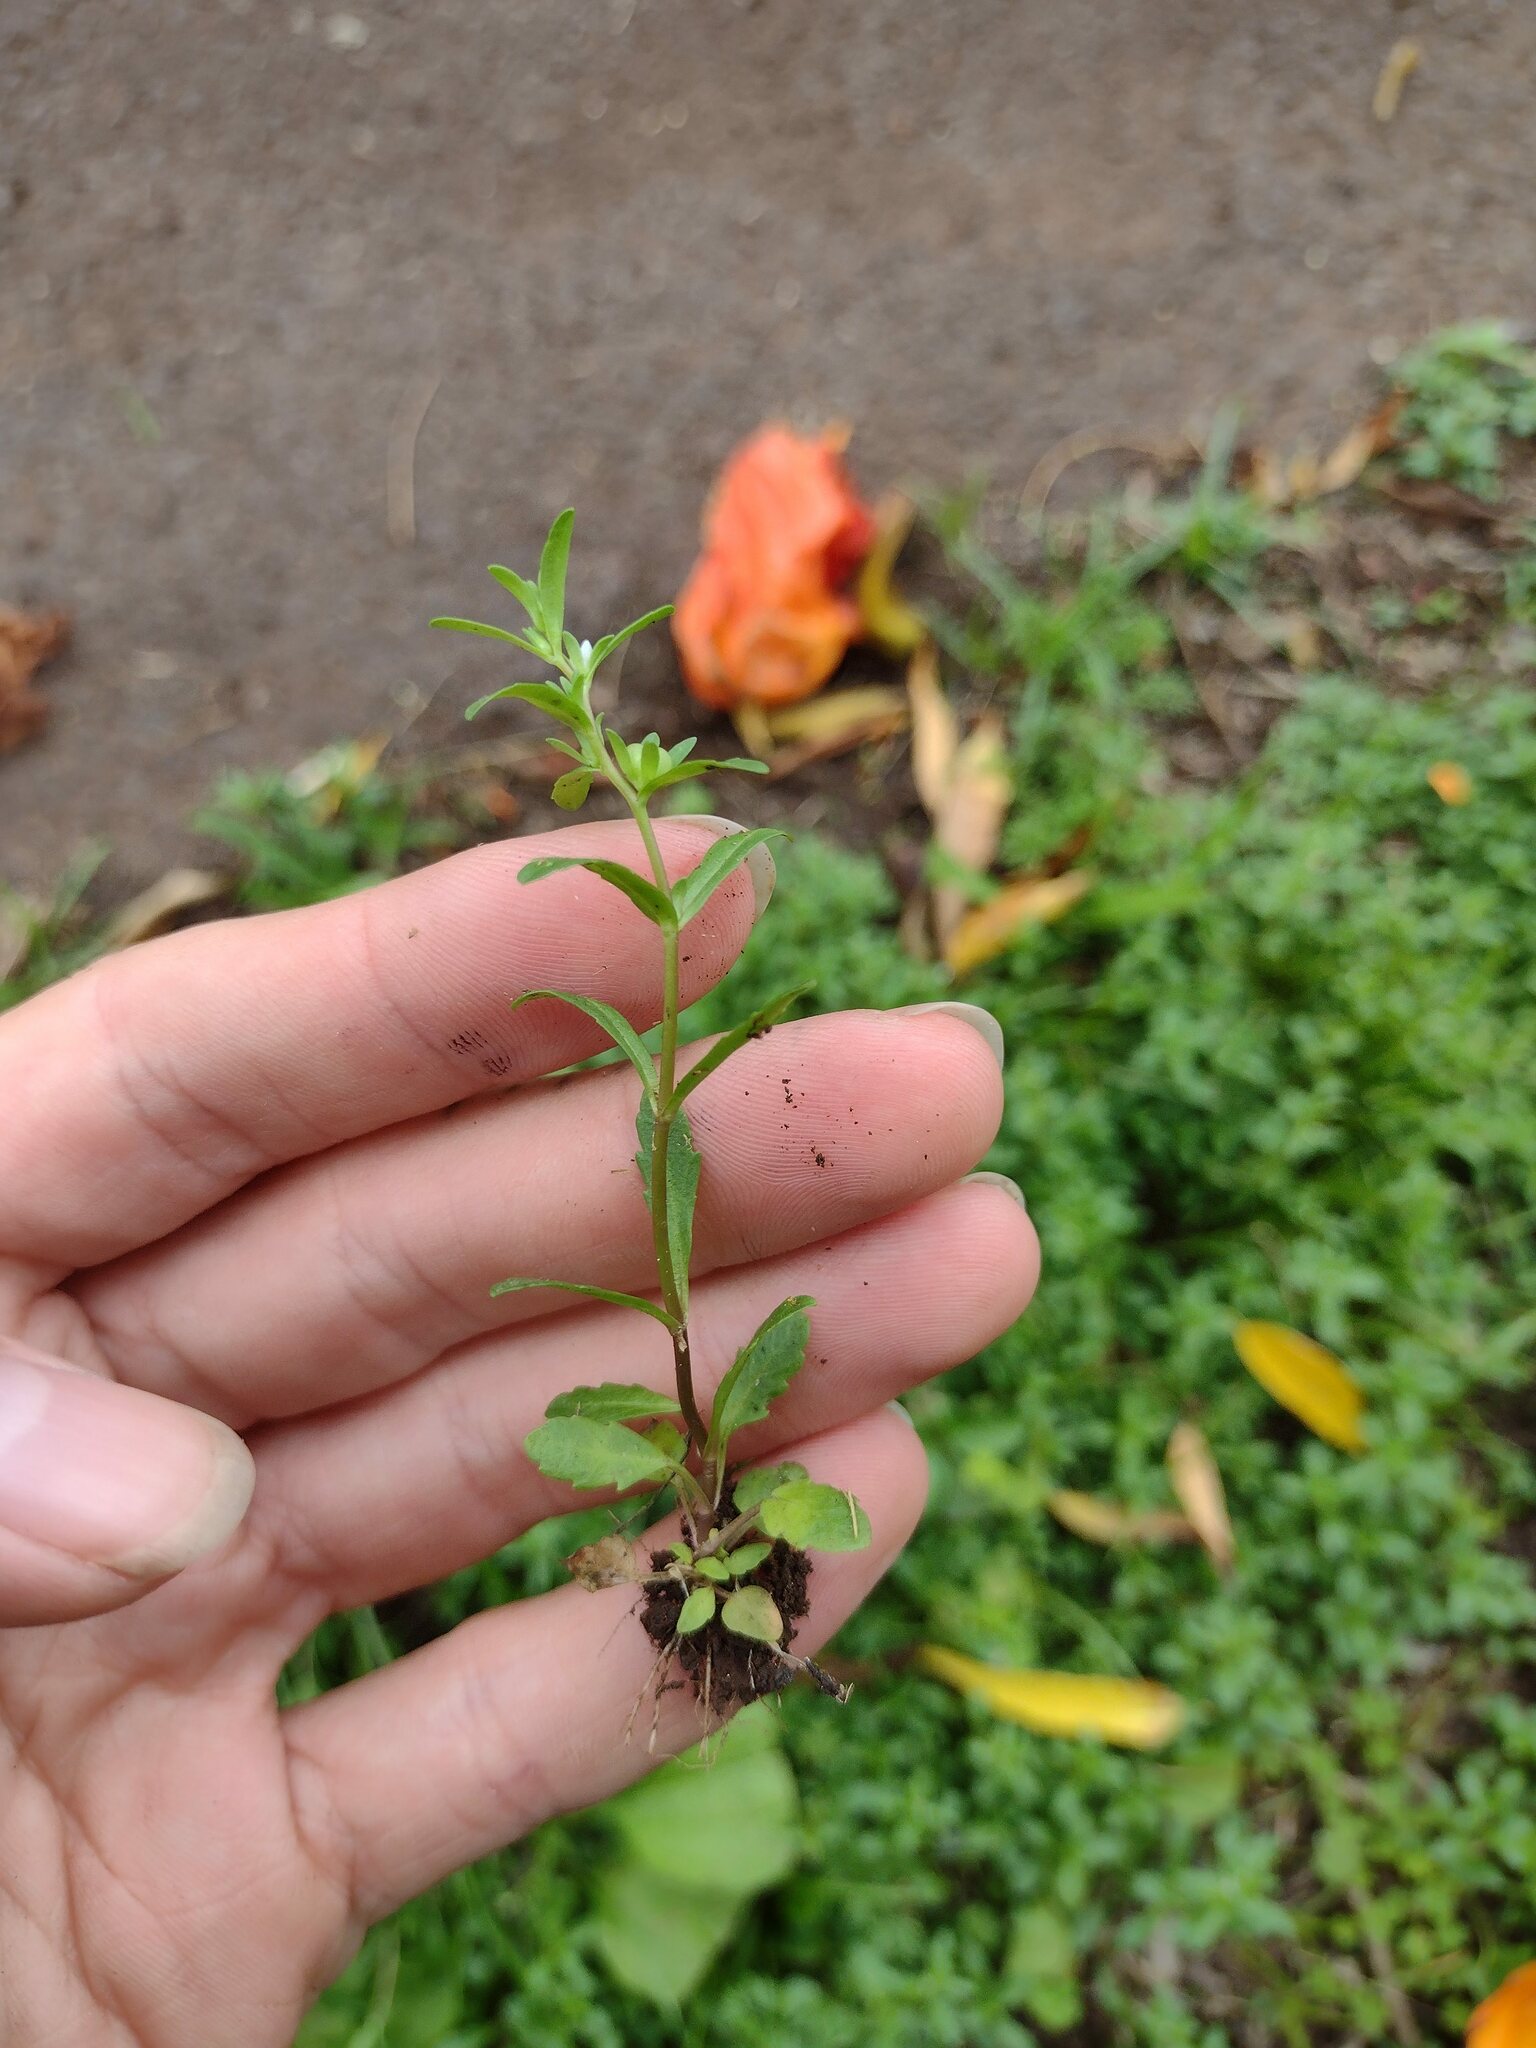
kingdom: Plantae
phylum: Tracheophyta
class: Magnoliopsida
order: Lamiales
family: Plantaginaceae
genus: Veronica
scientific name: Veronica peregrina
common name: Neckweed
